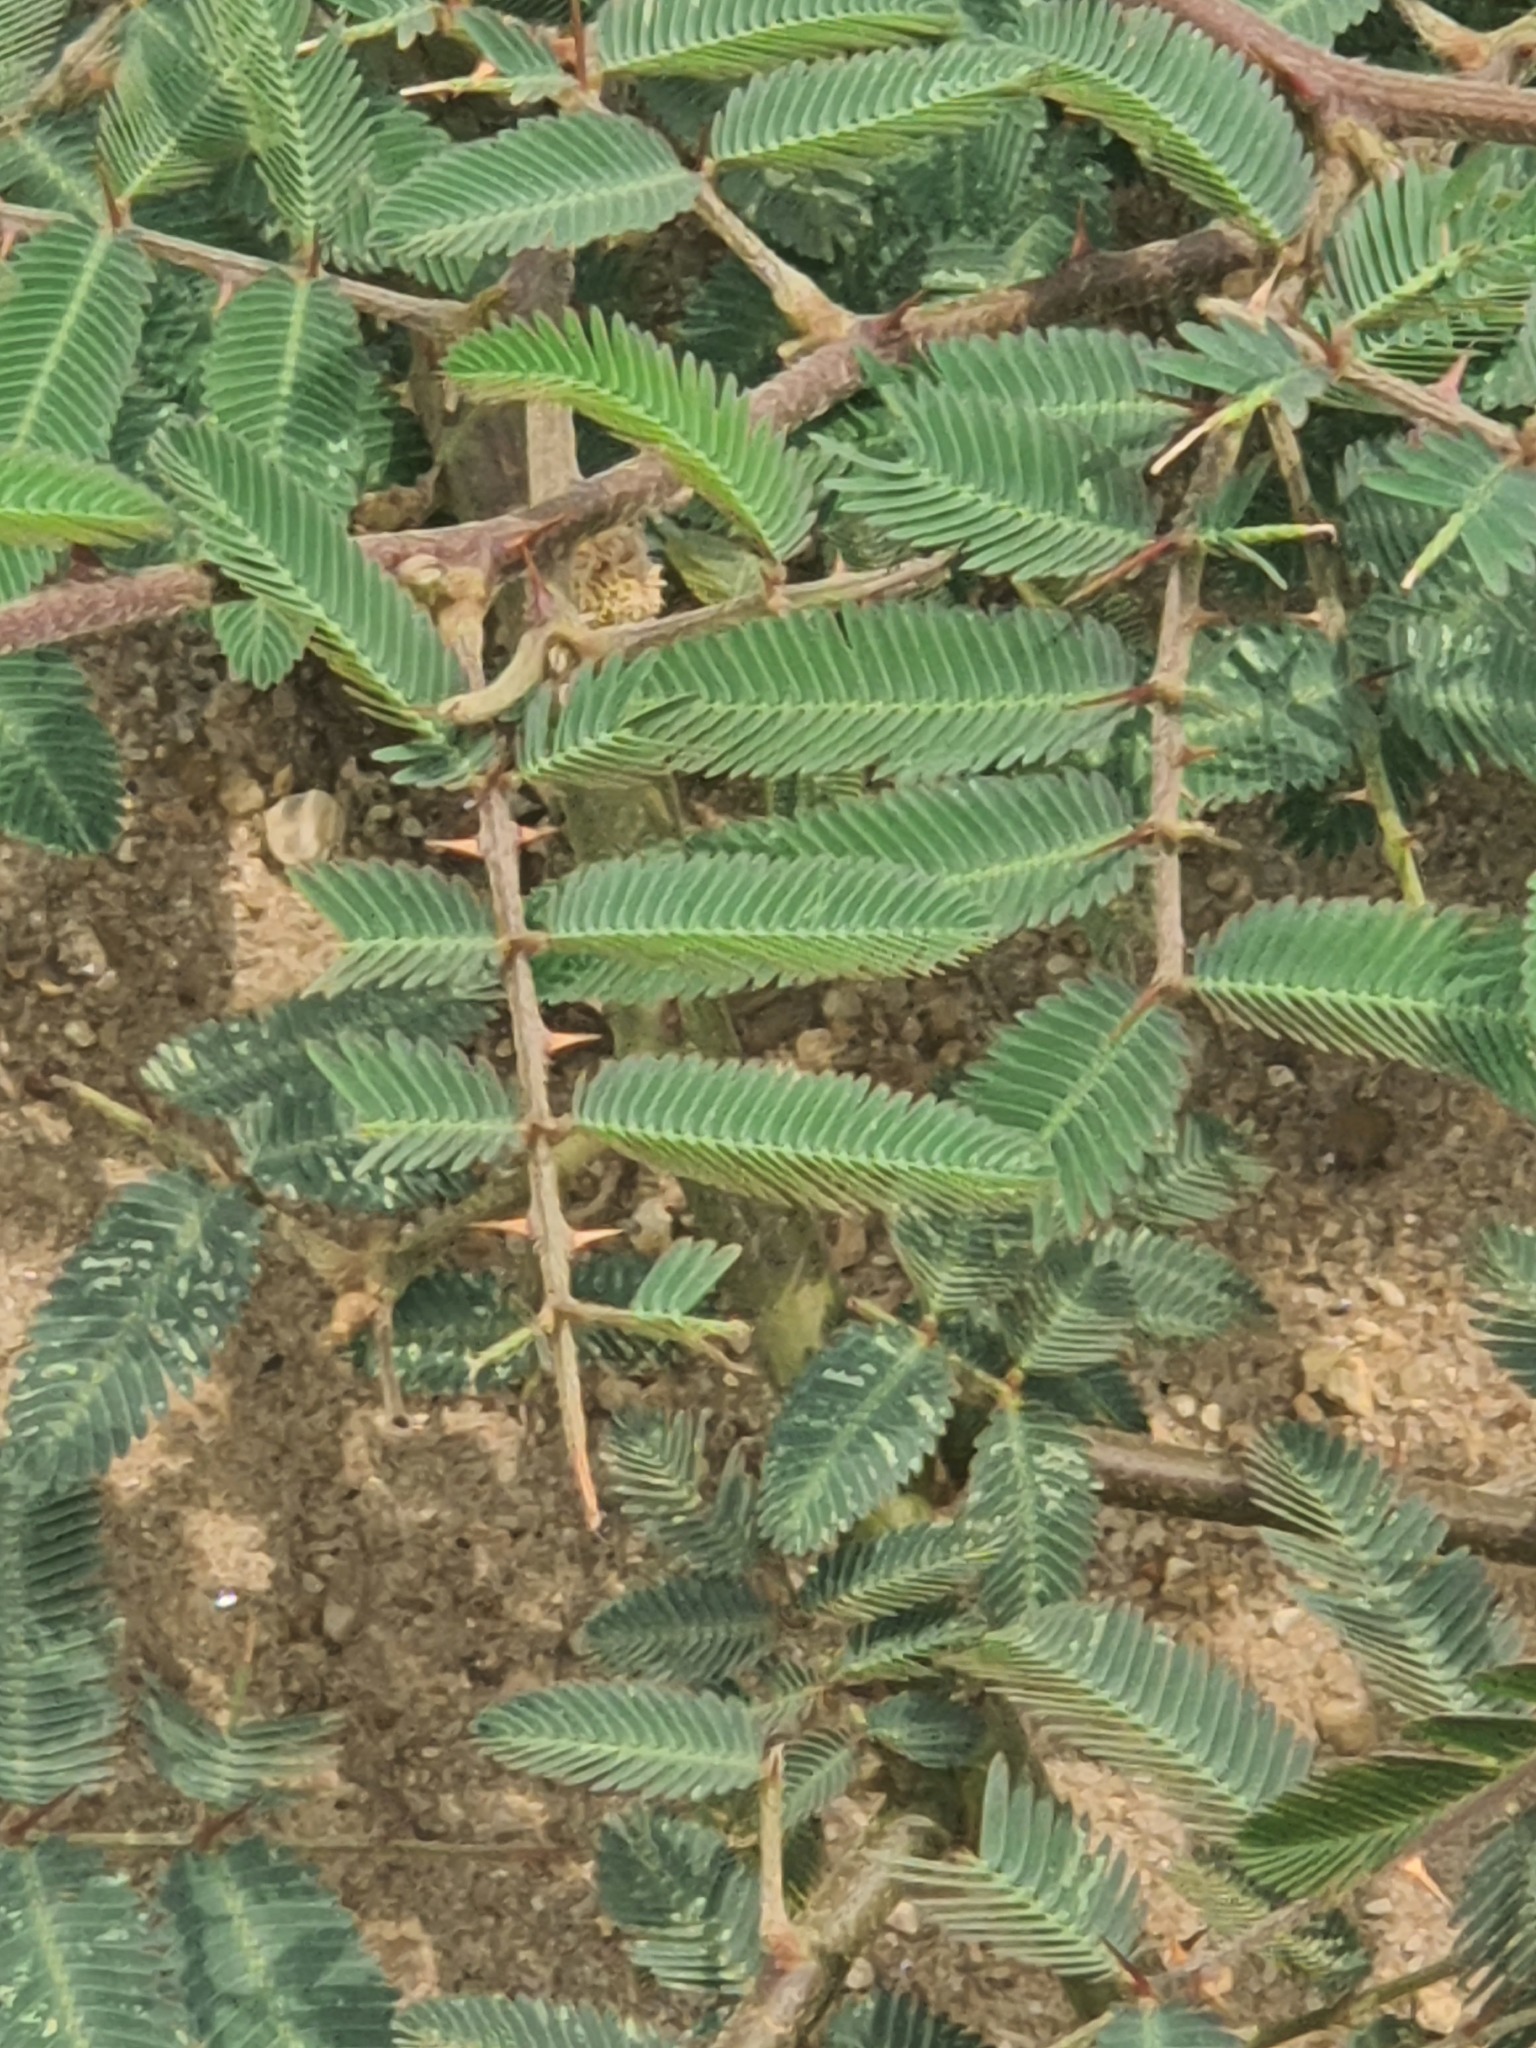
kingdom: Plantae
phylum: Tracheophyta
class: Magnoliopsida
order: Fabales
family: Fabaceae
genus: Mimosa
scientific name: Mimosa pigra
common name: Black mimosa
